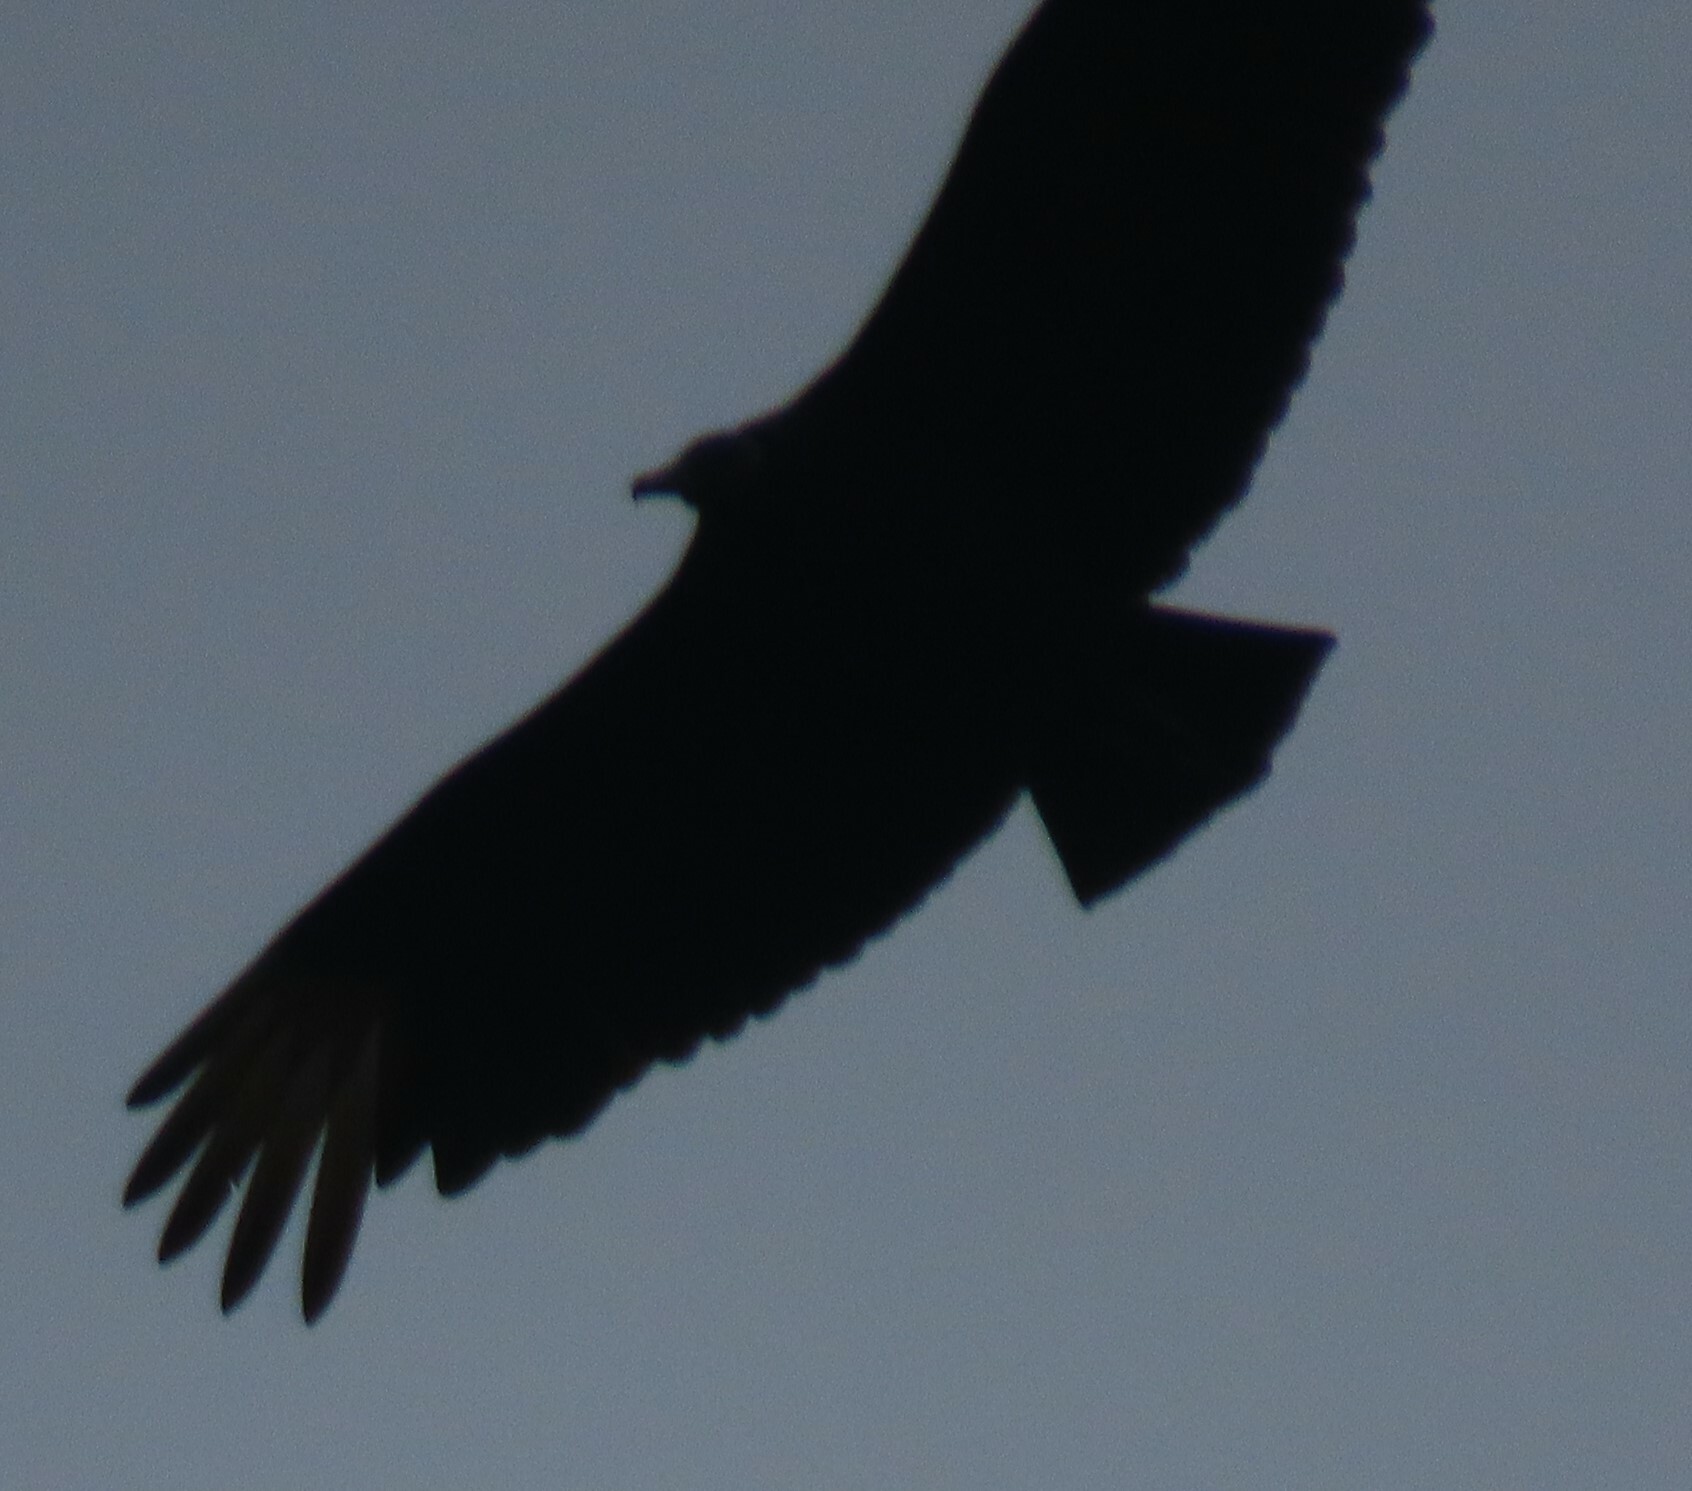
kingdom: Animalia
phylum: Chordata
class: Aves
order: Accipitriformes
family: Cathartidae
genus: Coragyps
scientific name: Coragyps atratus
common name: Black vulture
